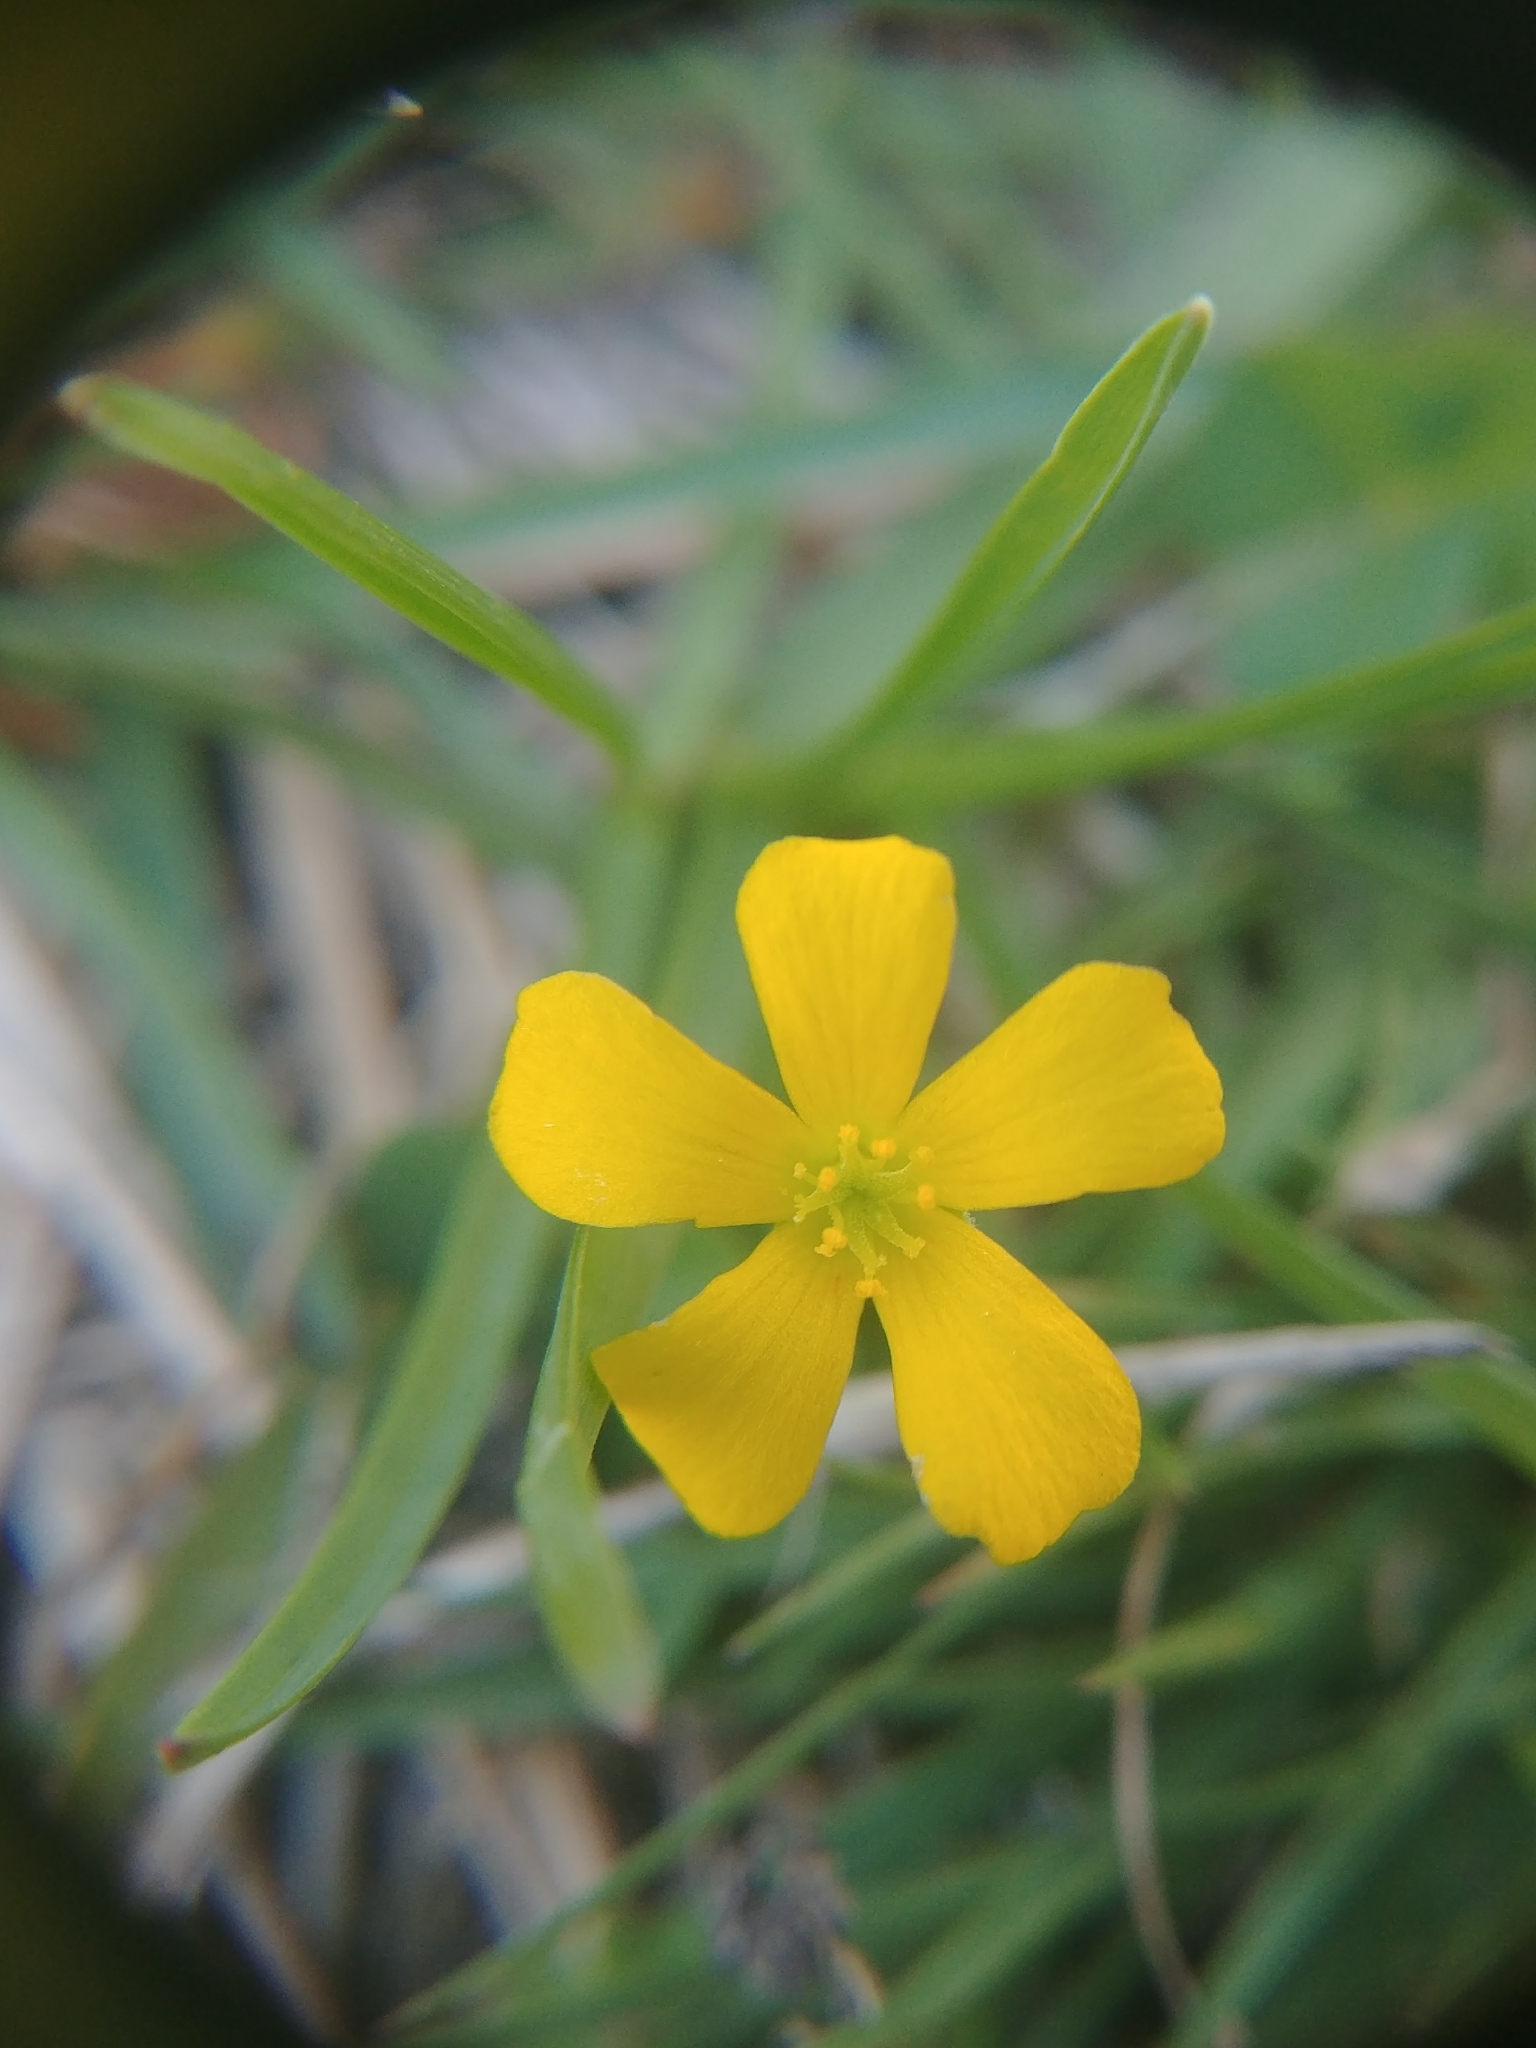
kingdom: Plantae
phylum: Tracheophyta
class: Magnoliopsida
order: Oxalidales
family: Oxalidaceae
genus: Oxalis
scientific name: Oxalis corniculata
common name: Procumbent yellow-sorrel
